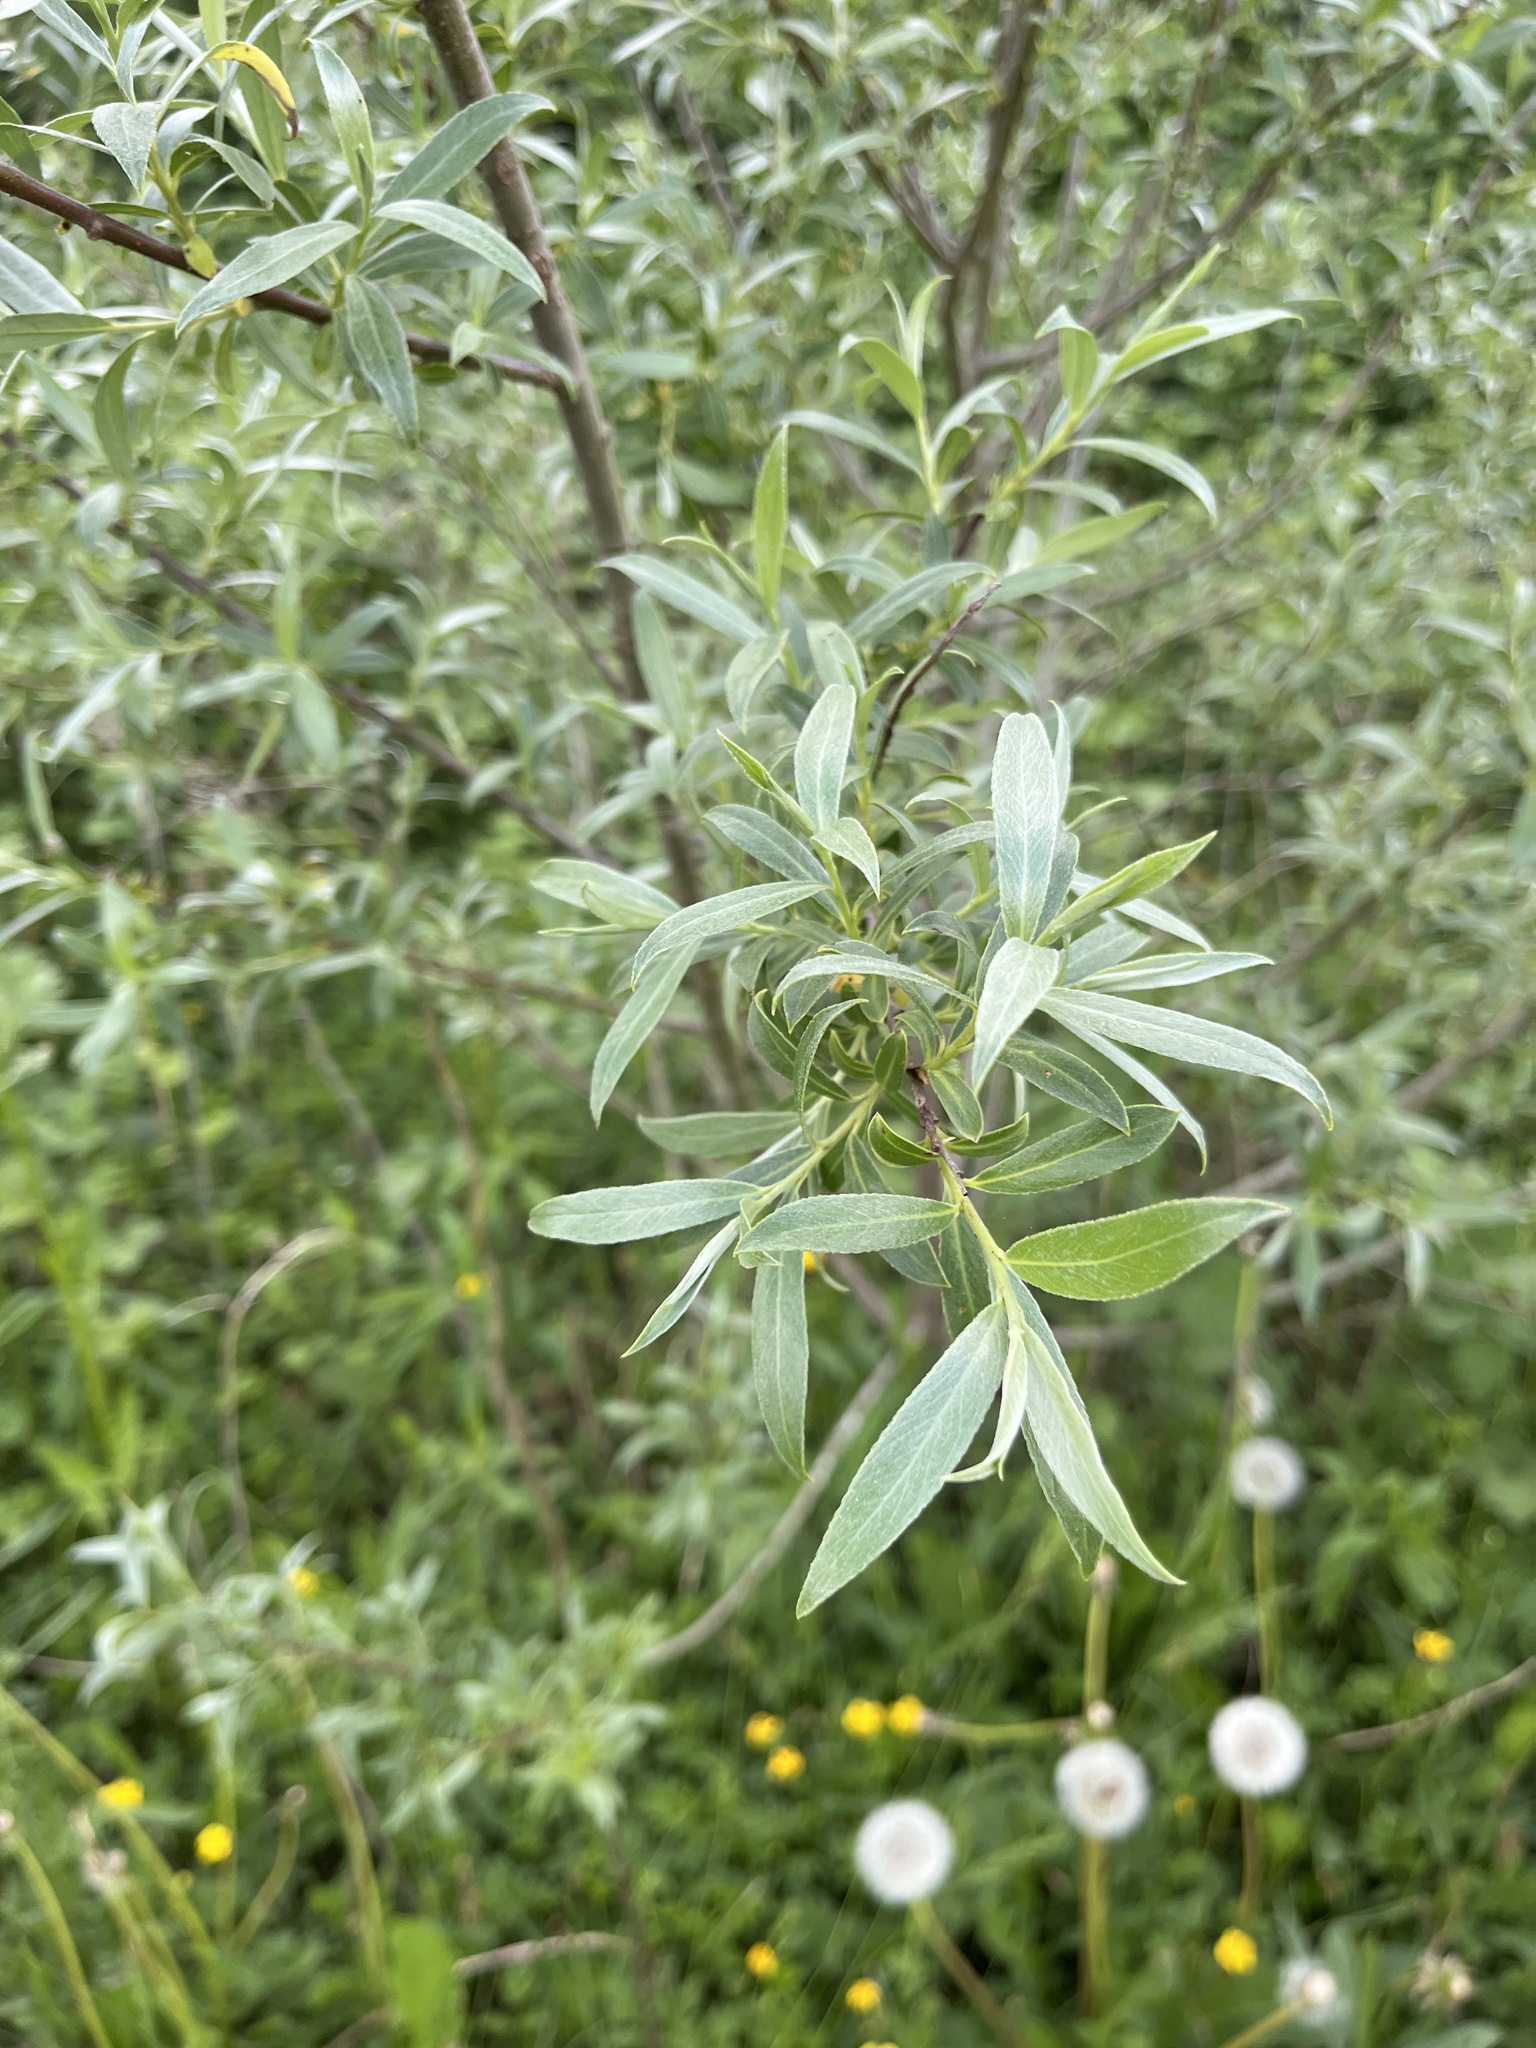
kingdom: Plantae
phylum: Tracheophyta
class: Magnoliopsida
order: Malpighiales
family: Salicaceae
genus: Salix
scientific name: Salix alba
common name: White willow
